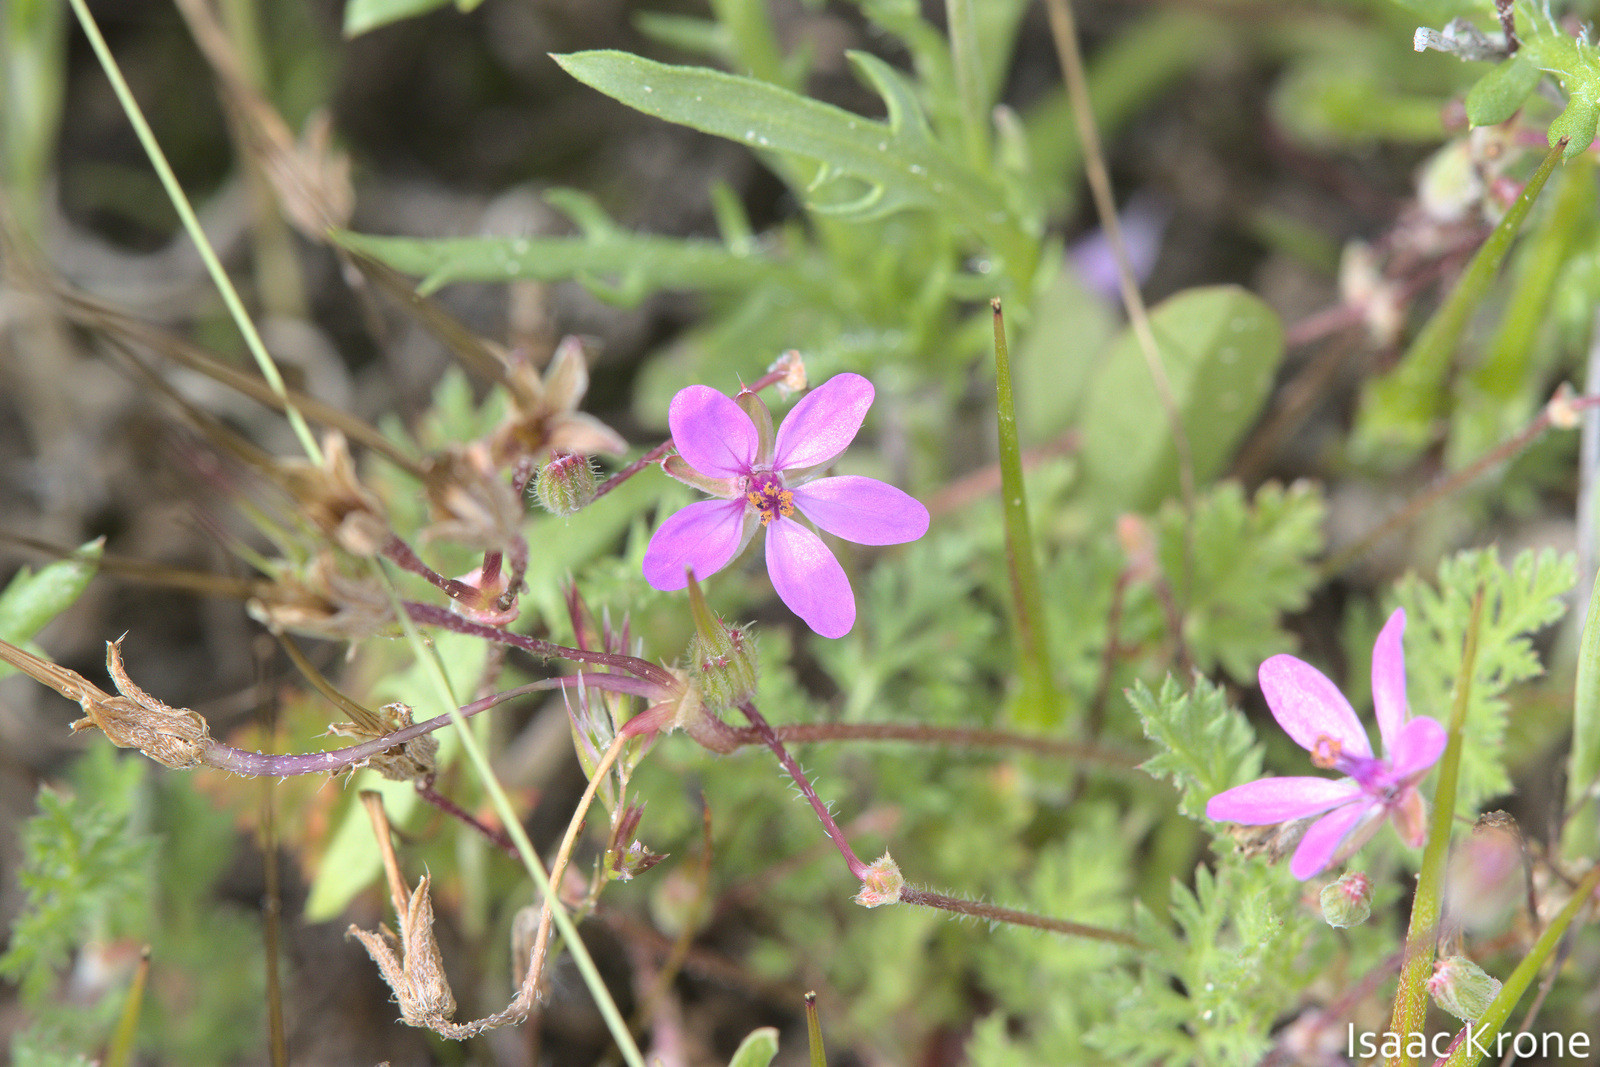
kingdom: Plantae
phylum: Tracheophyta
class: Magnoliopsida
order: Geraniales
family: Geraniaceae
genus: Erodium
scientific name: Erodium cicutarium
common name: Common stork's-bill
